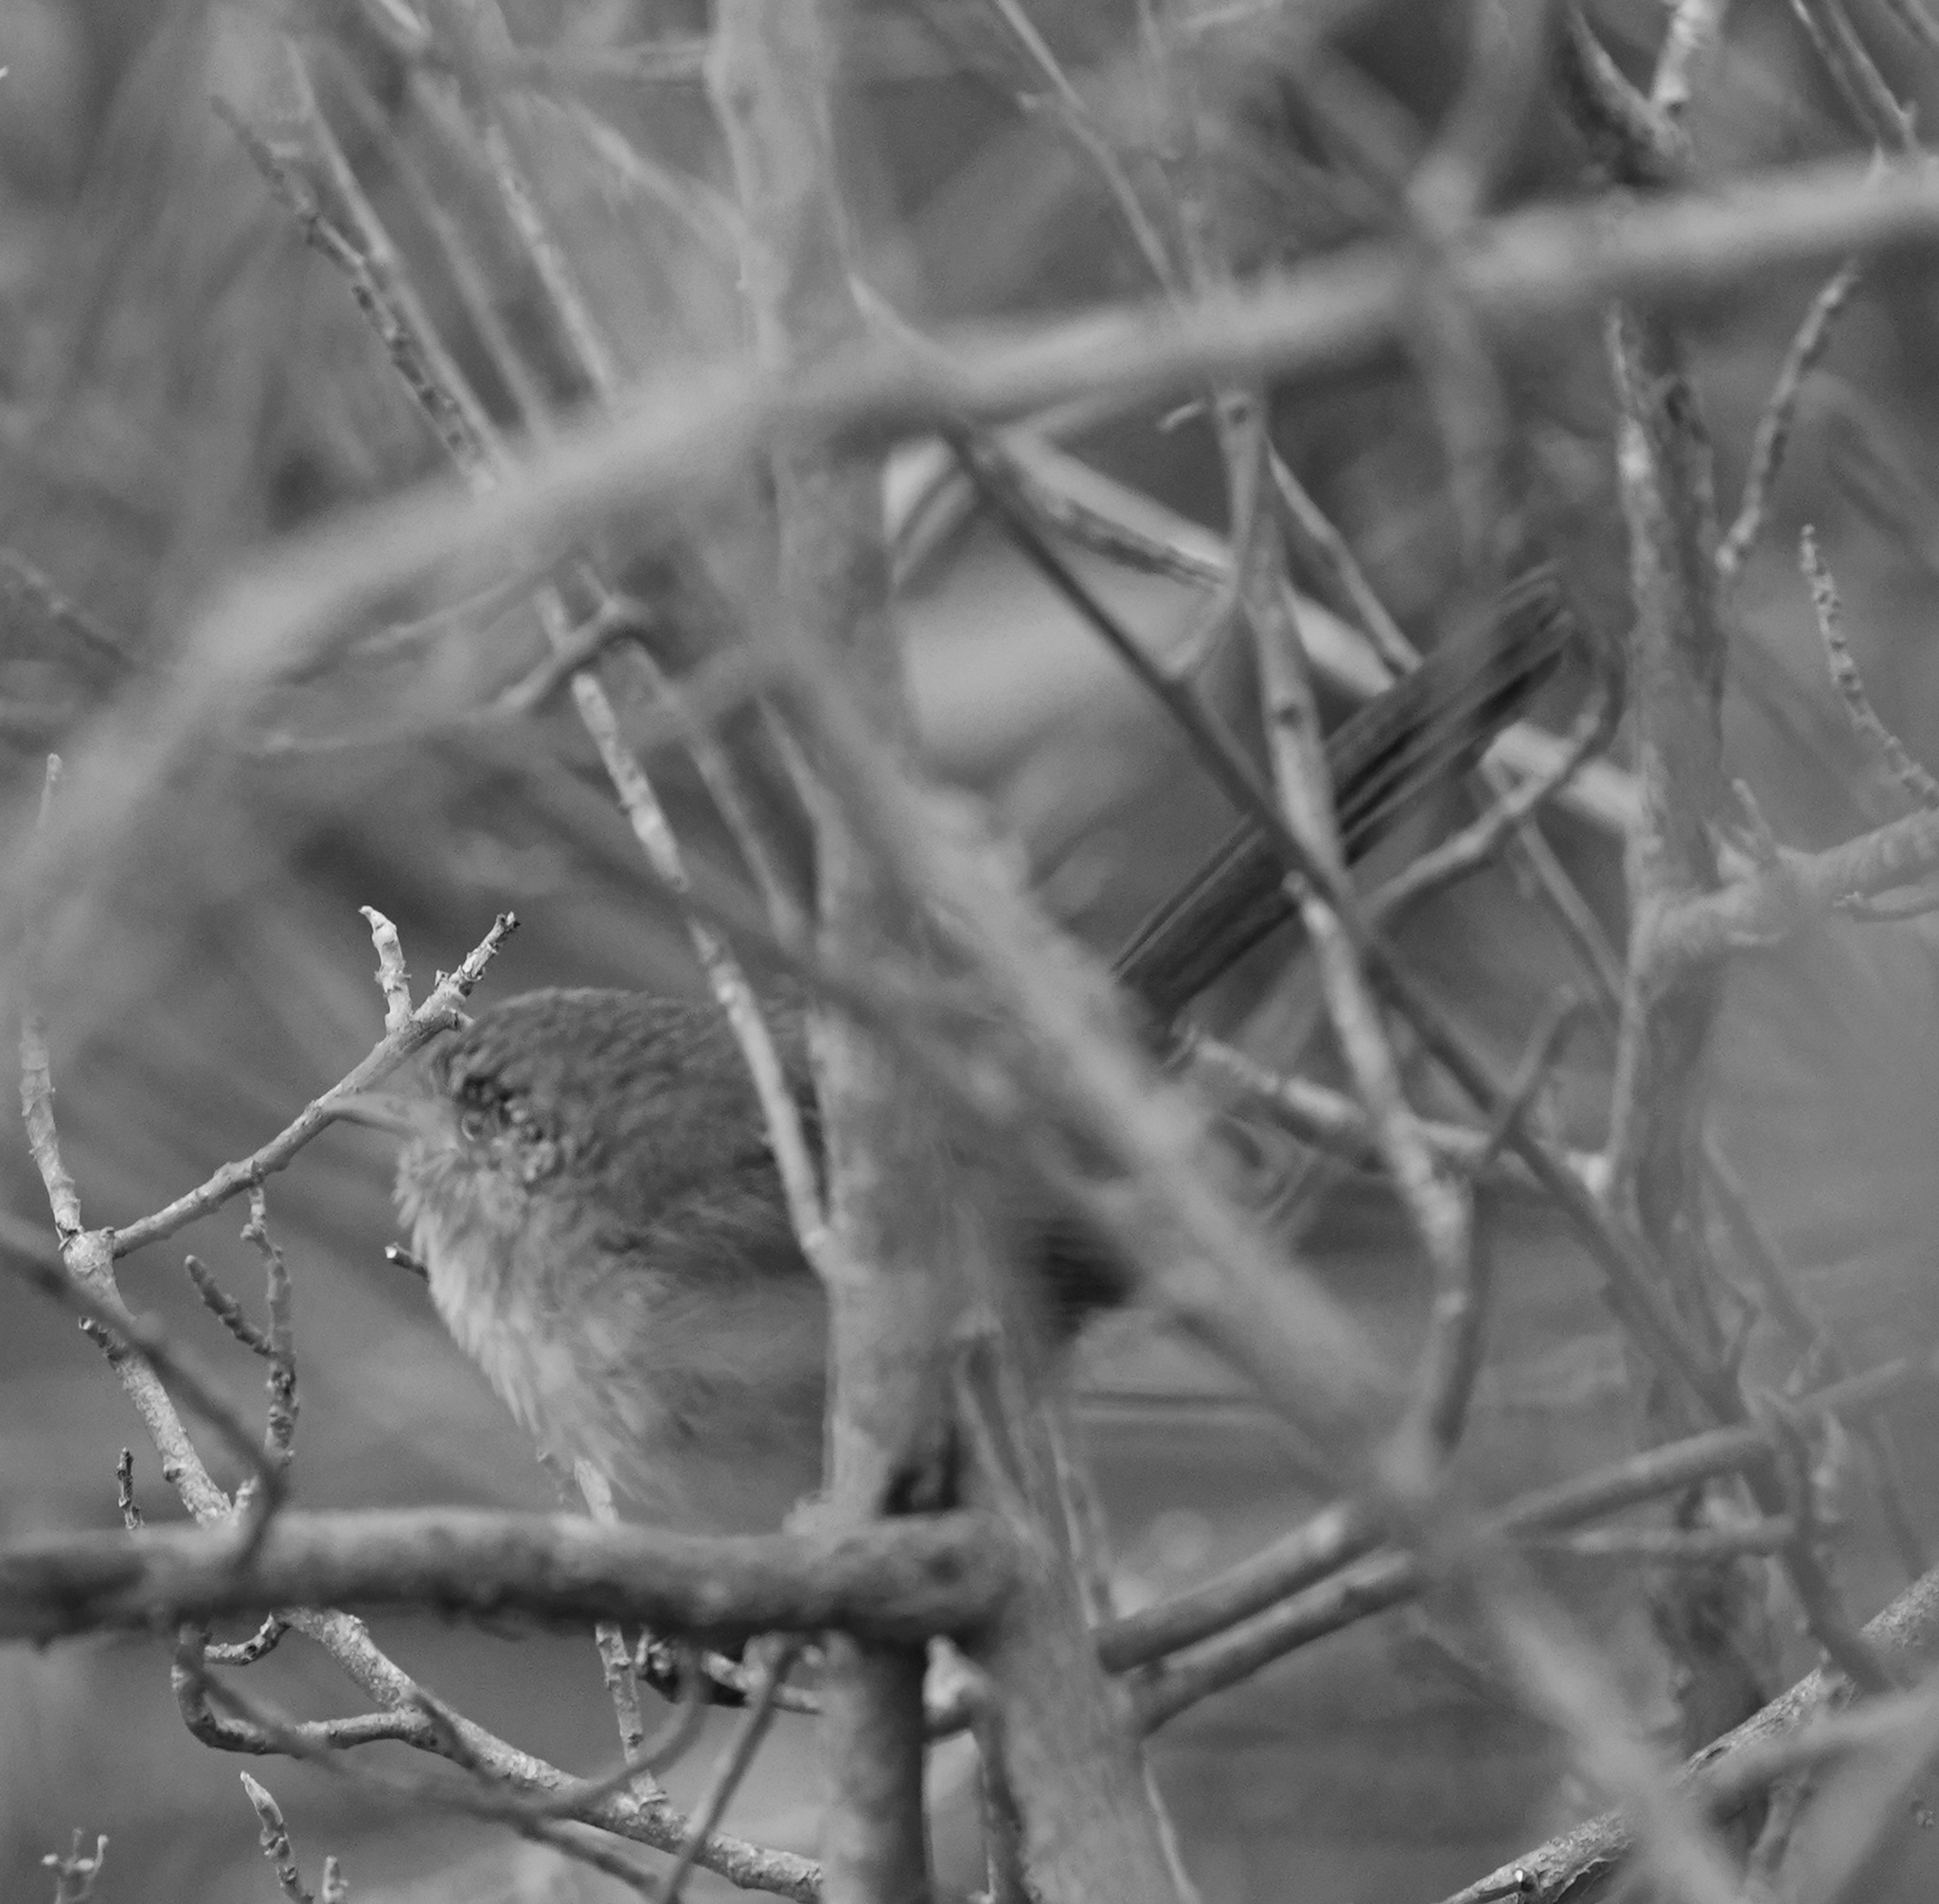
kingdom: Animalia
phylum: Chordata
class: Aves
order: Passeriformes
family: Sylviidae
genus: Chamaea
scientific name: Chamaea fasciata
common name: Wrentit
